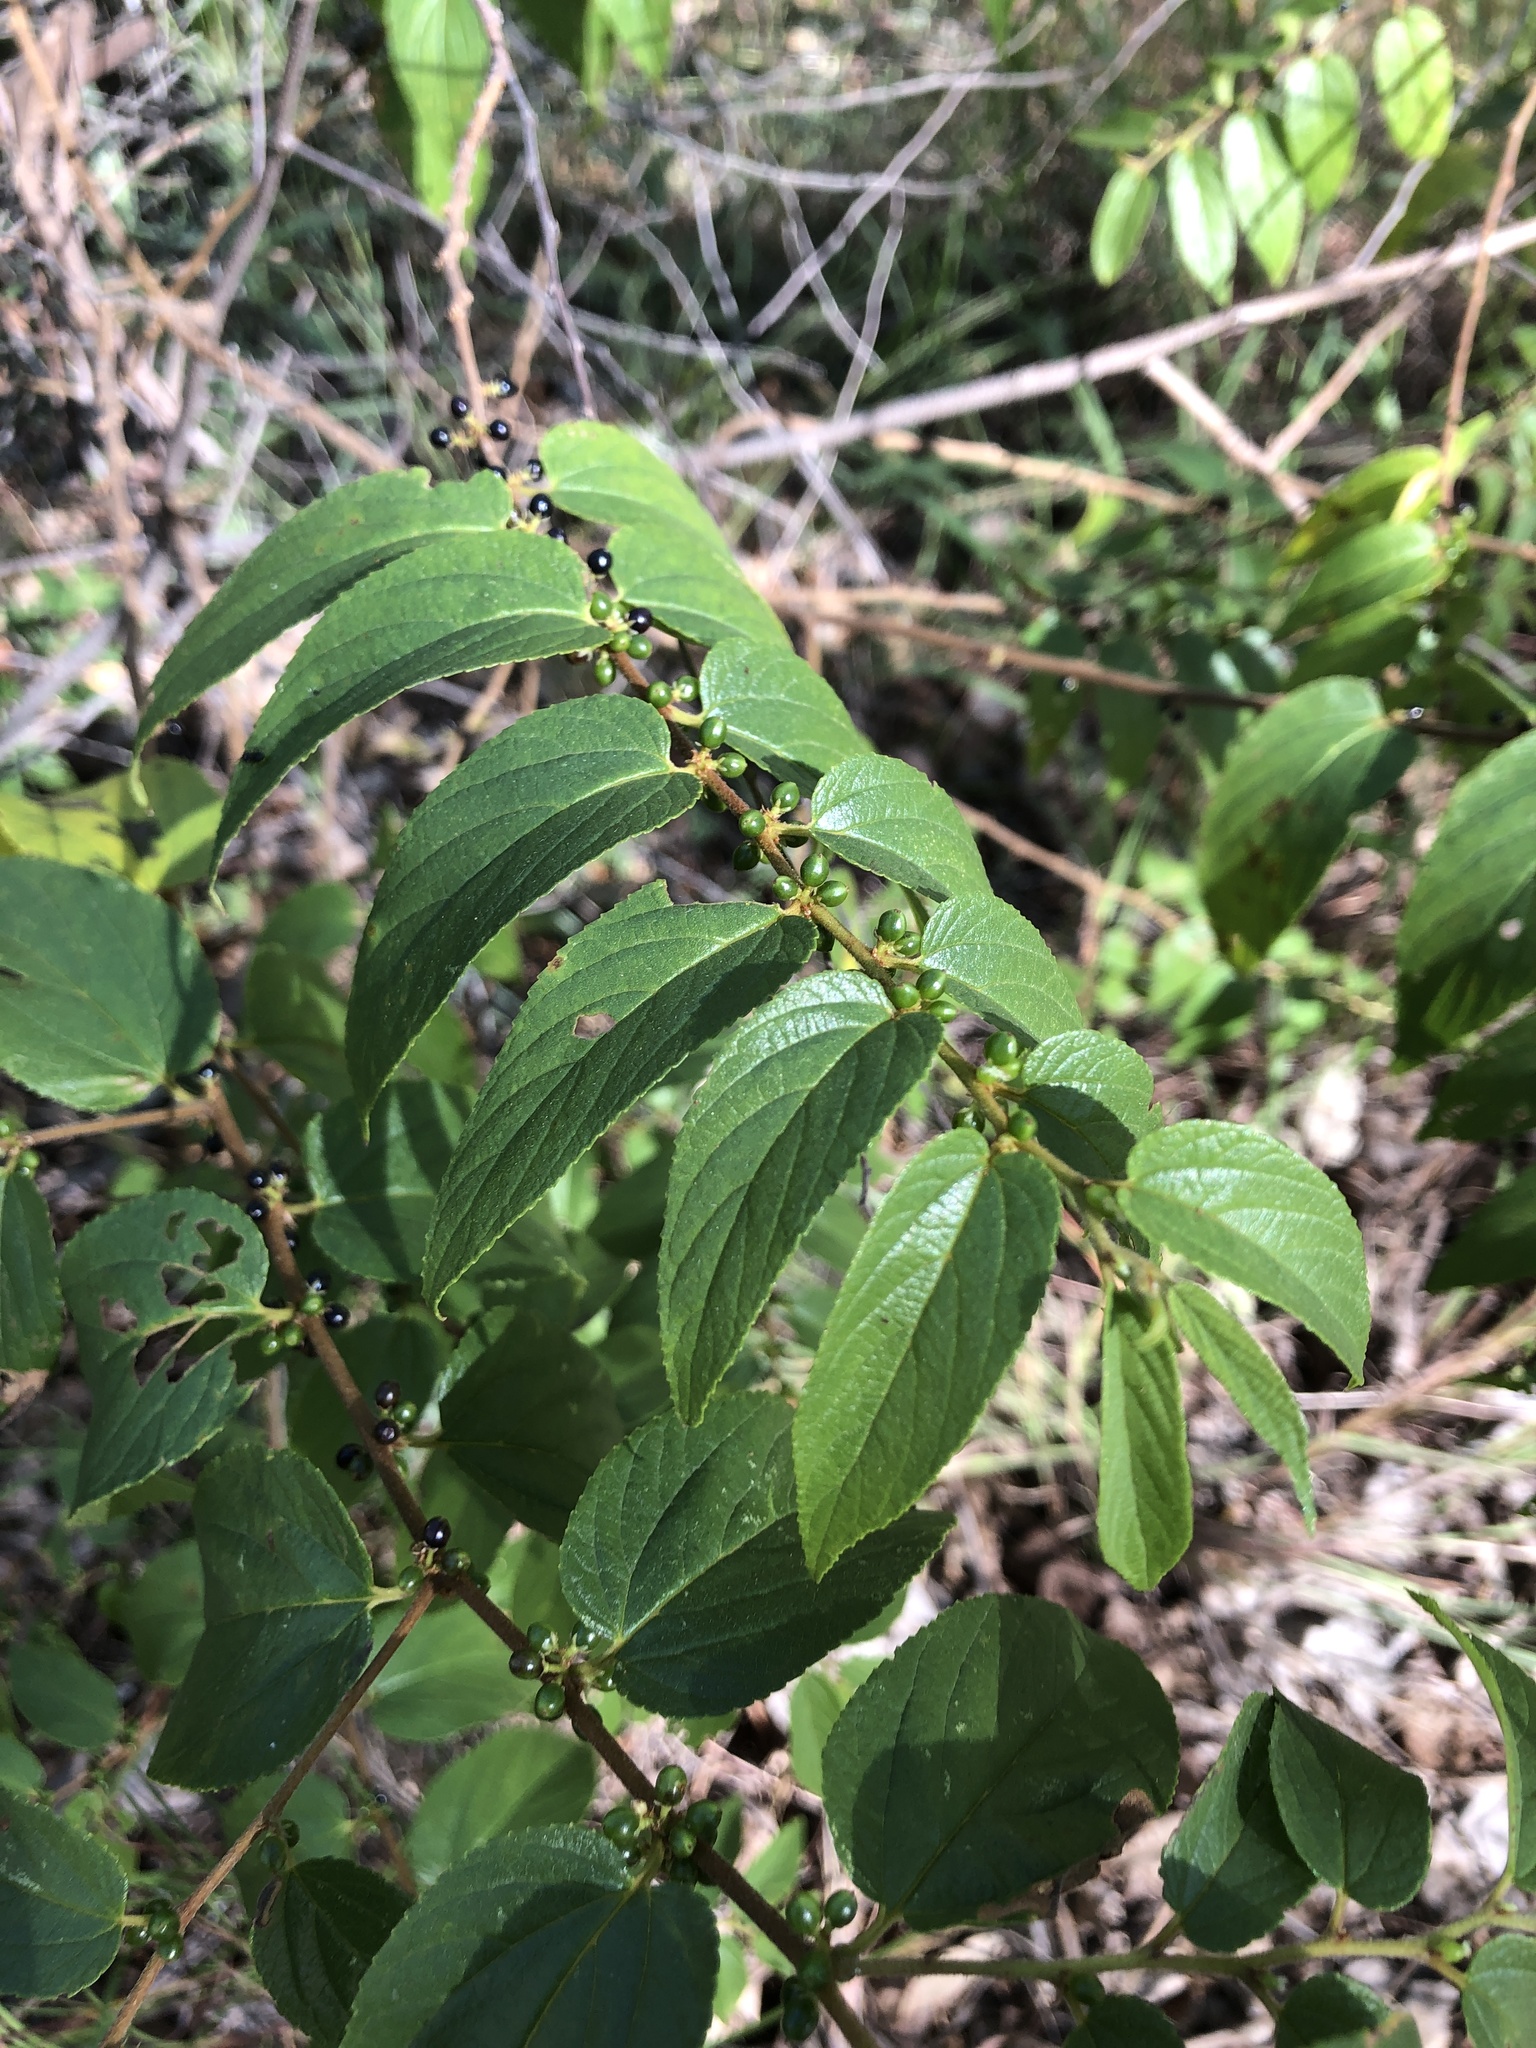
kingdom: Plantae
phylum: Tracheophyta
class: Magnoliopsida
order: Rosales
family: Cannabaceae
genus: Trema
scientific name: Trema tomentosum
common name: Peach-leaf-poisonbush
